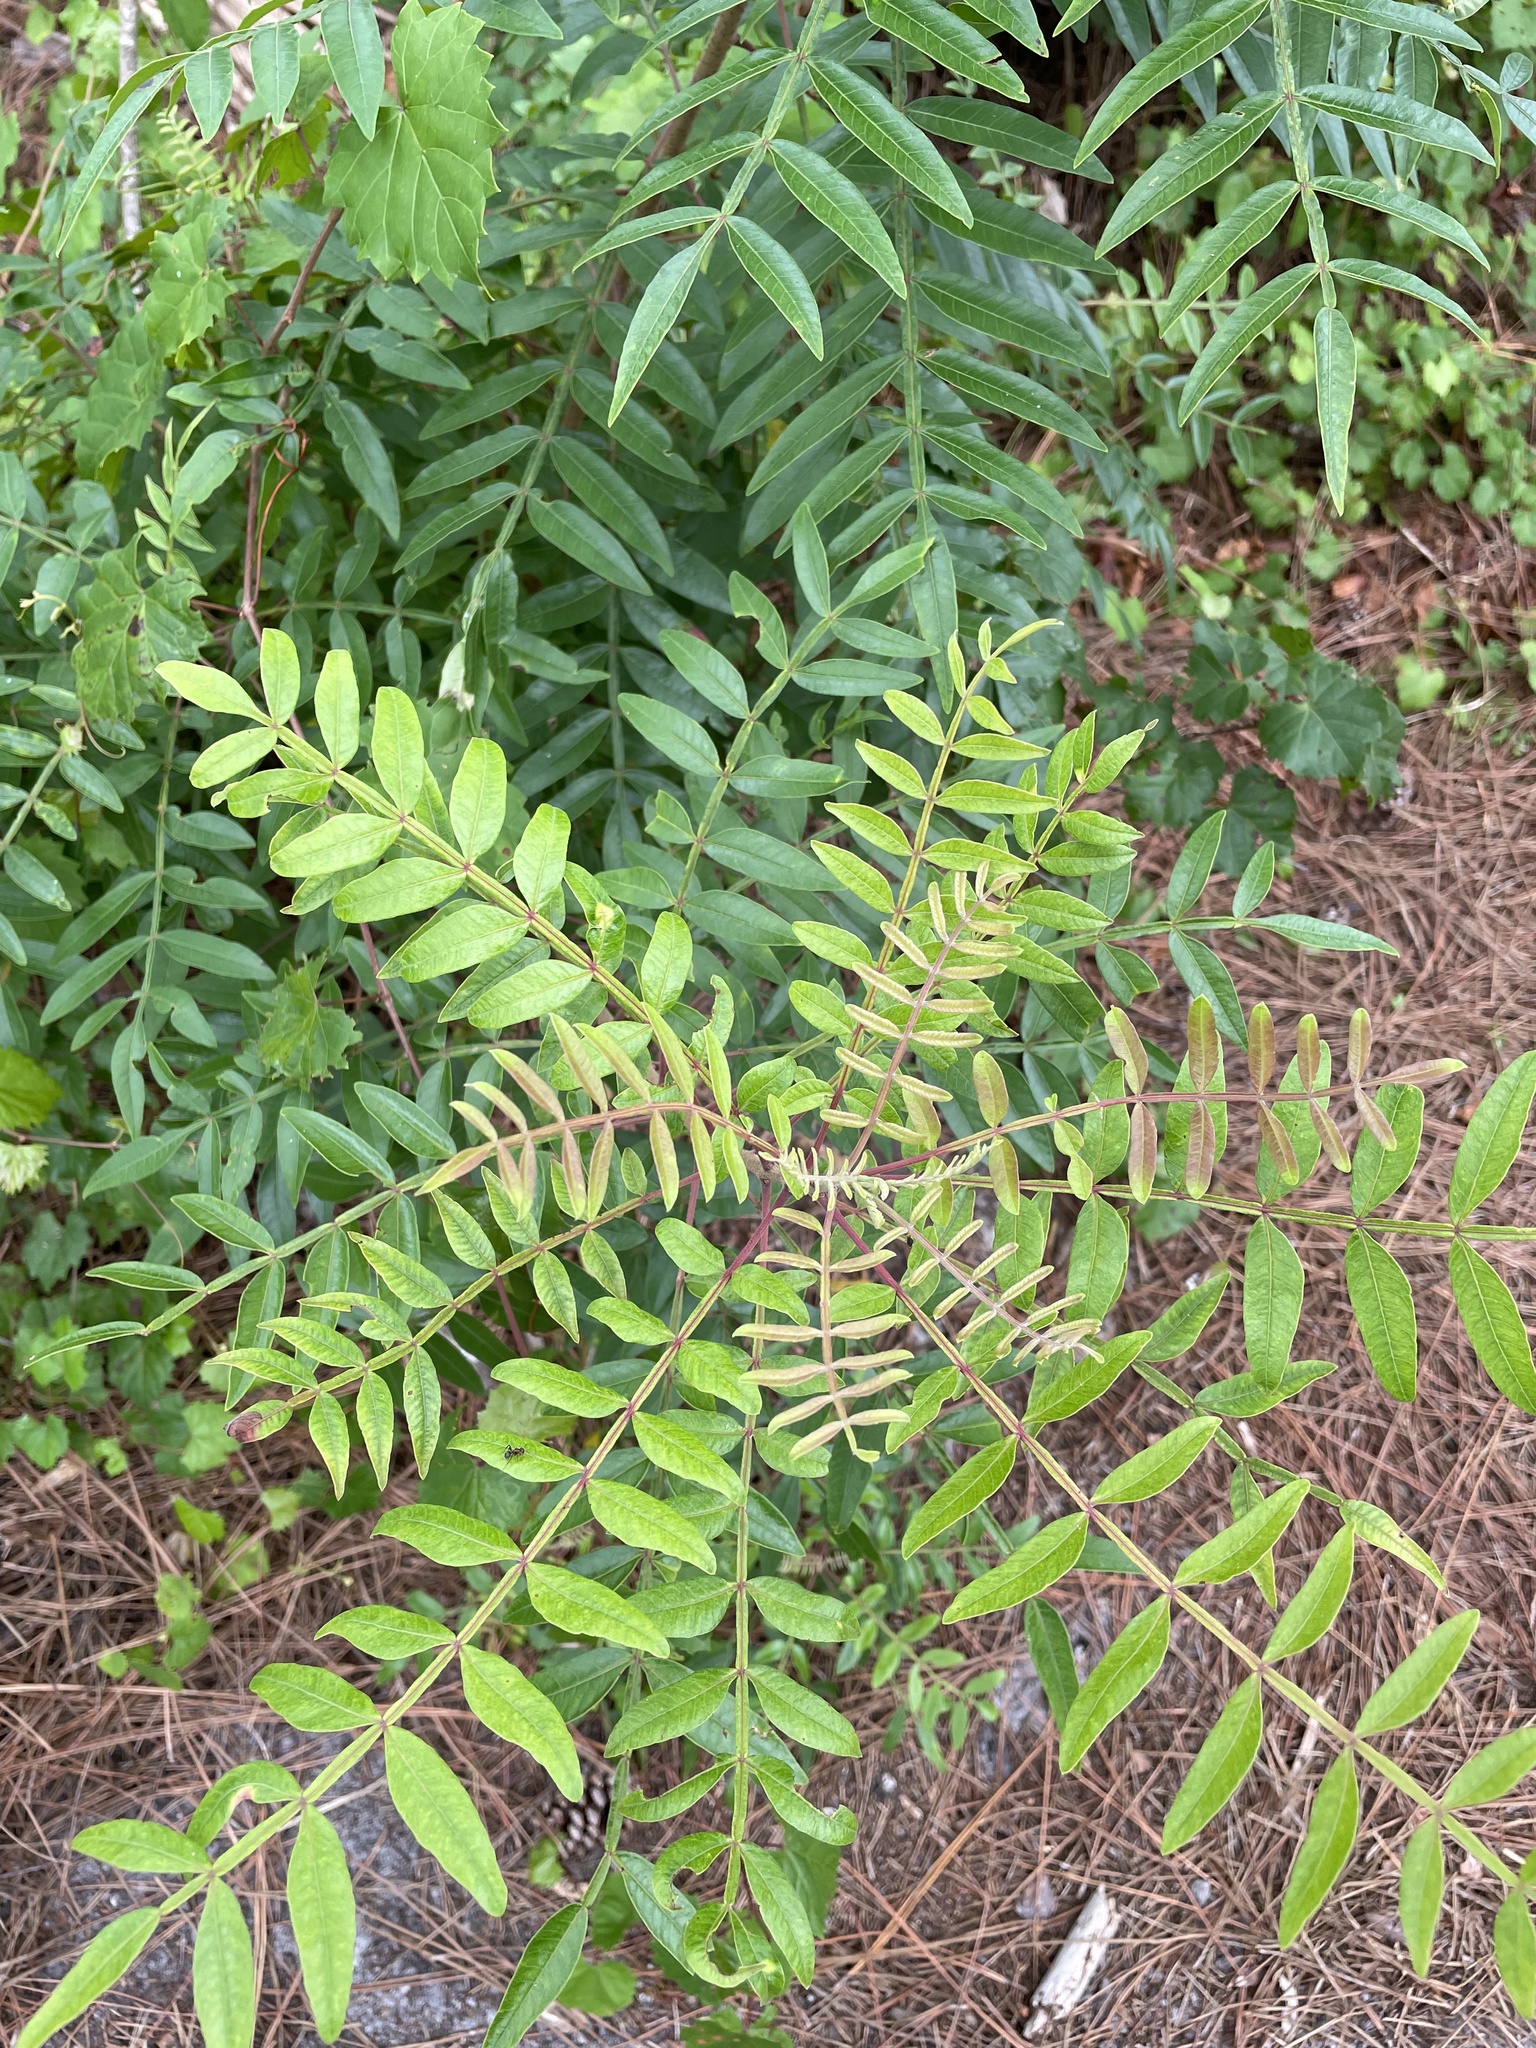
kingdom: Plantae
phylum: Tracheophyta
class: Magnoliopsida
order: Sapindales
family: Anacardiaceae
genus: Rhus
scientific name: Rhus copallina
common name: Shining sumac
